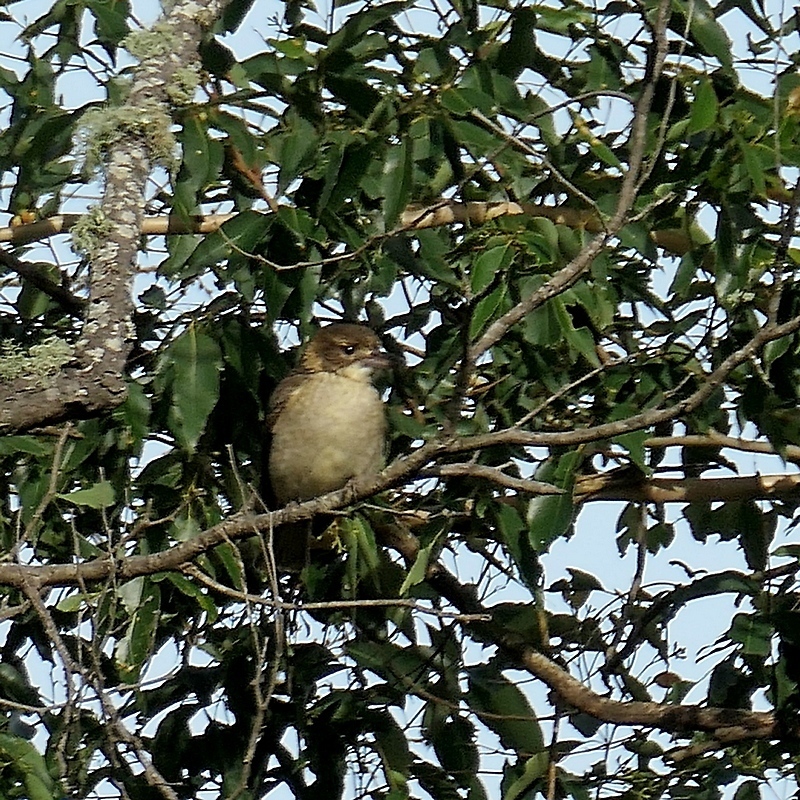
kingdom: Animalia
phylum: Chordata
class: Aves
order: Passeriformes
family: Cracticidae
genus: Cracticus
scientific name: Cracticus torquatus
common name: Grey butcherbird
